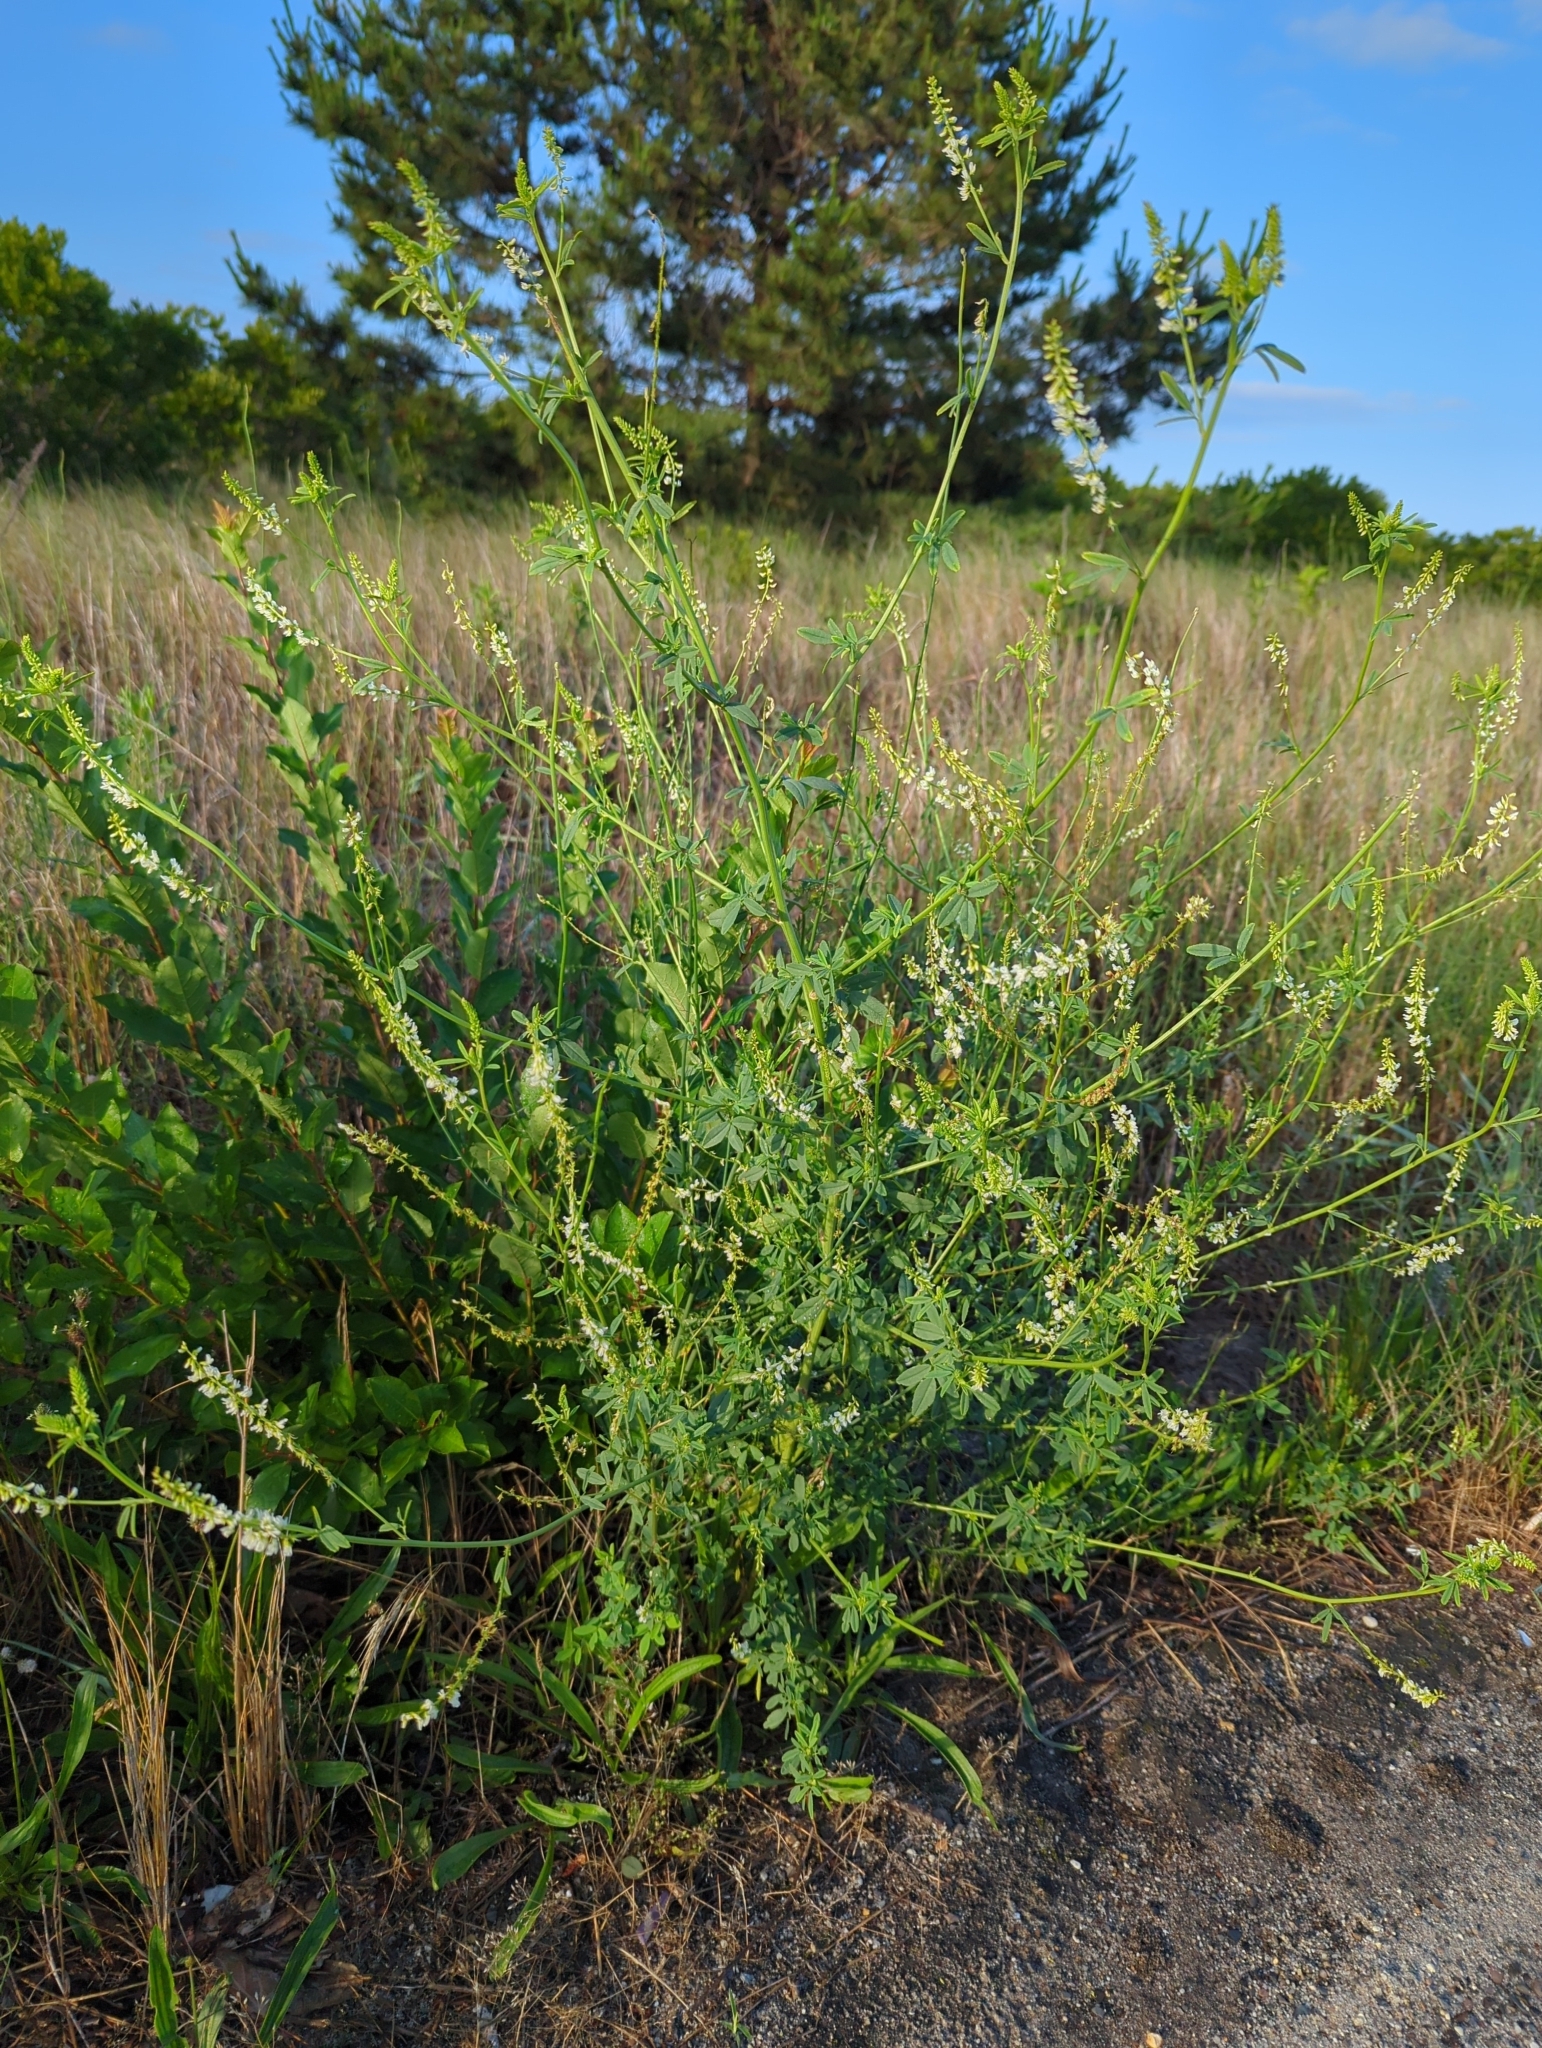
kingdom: Plantae
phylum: Tracheophyta
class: Magnoliopsida
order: Fabales
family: Fabaceae
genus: Melilotus
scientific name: Melilotus albus
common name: White melilot
